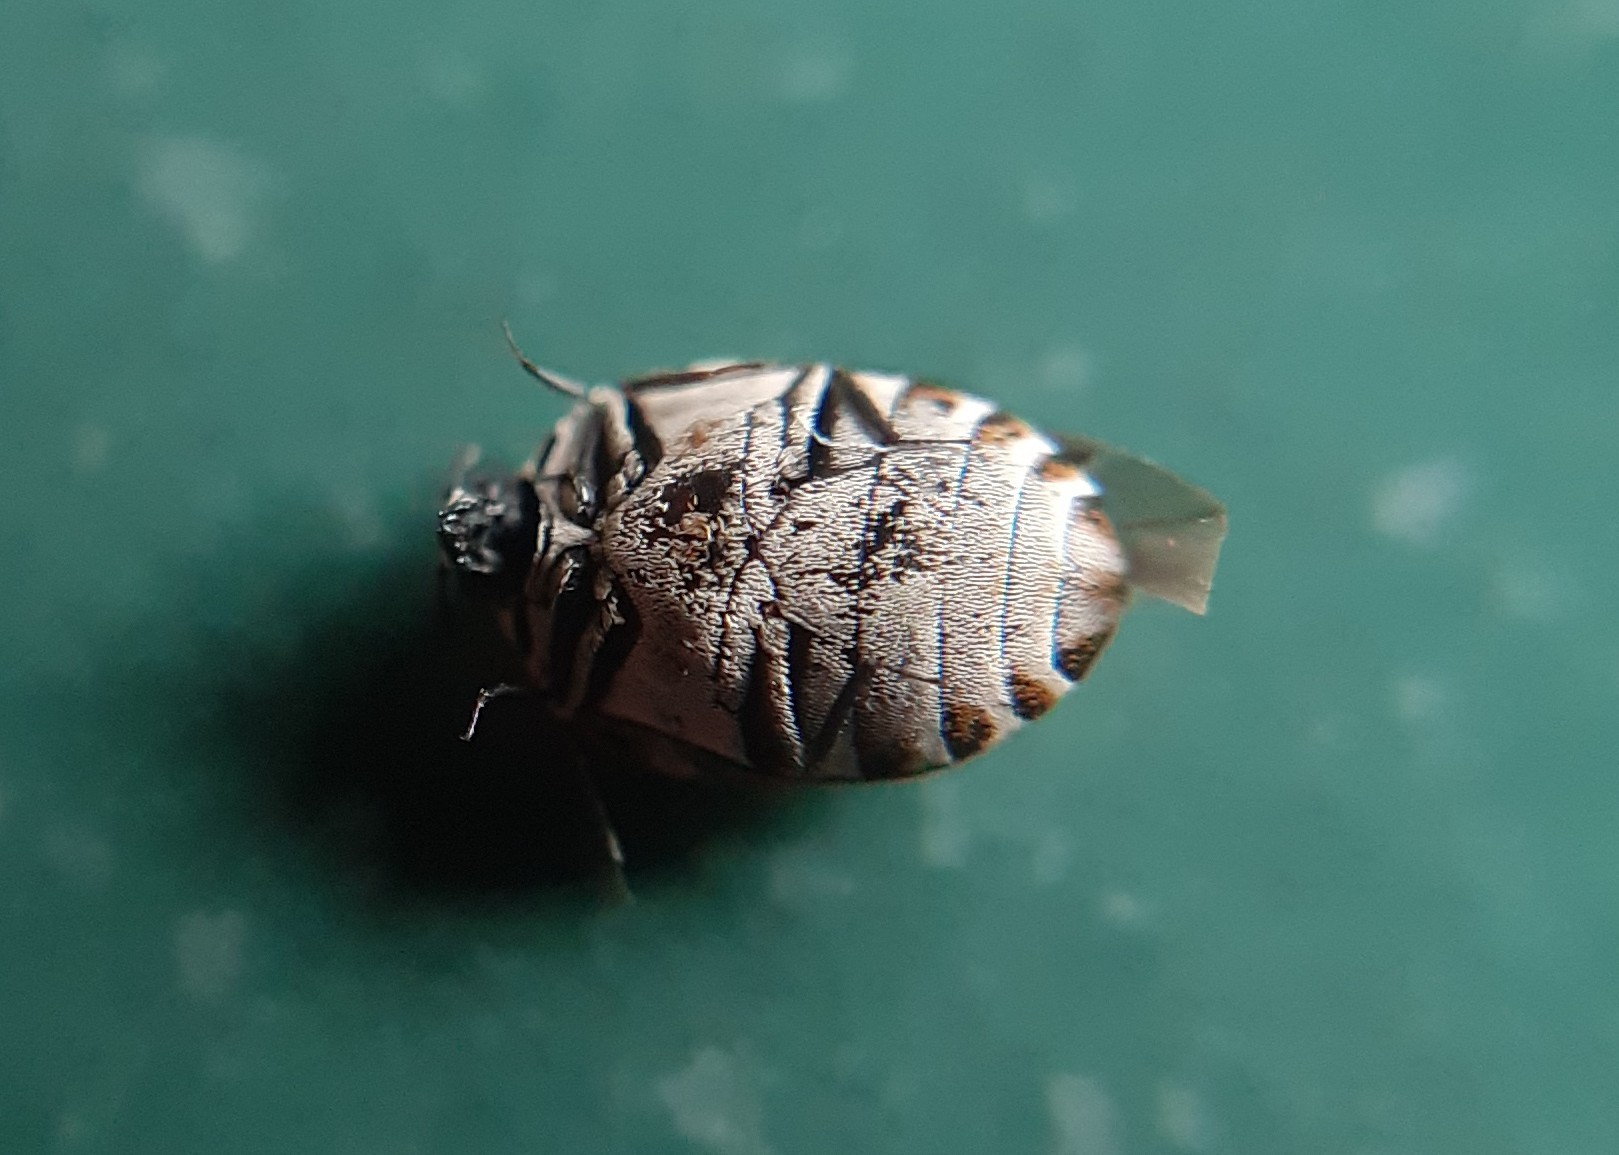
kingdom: Animalia
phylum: Arthropoda
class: Insecta
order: Coleoptera
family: Dermestidae
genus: Anthrenus
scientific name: Anthrenus verbasci
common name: Varied carpet beetle
